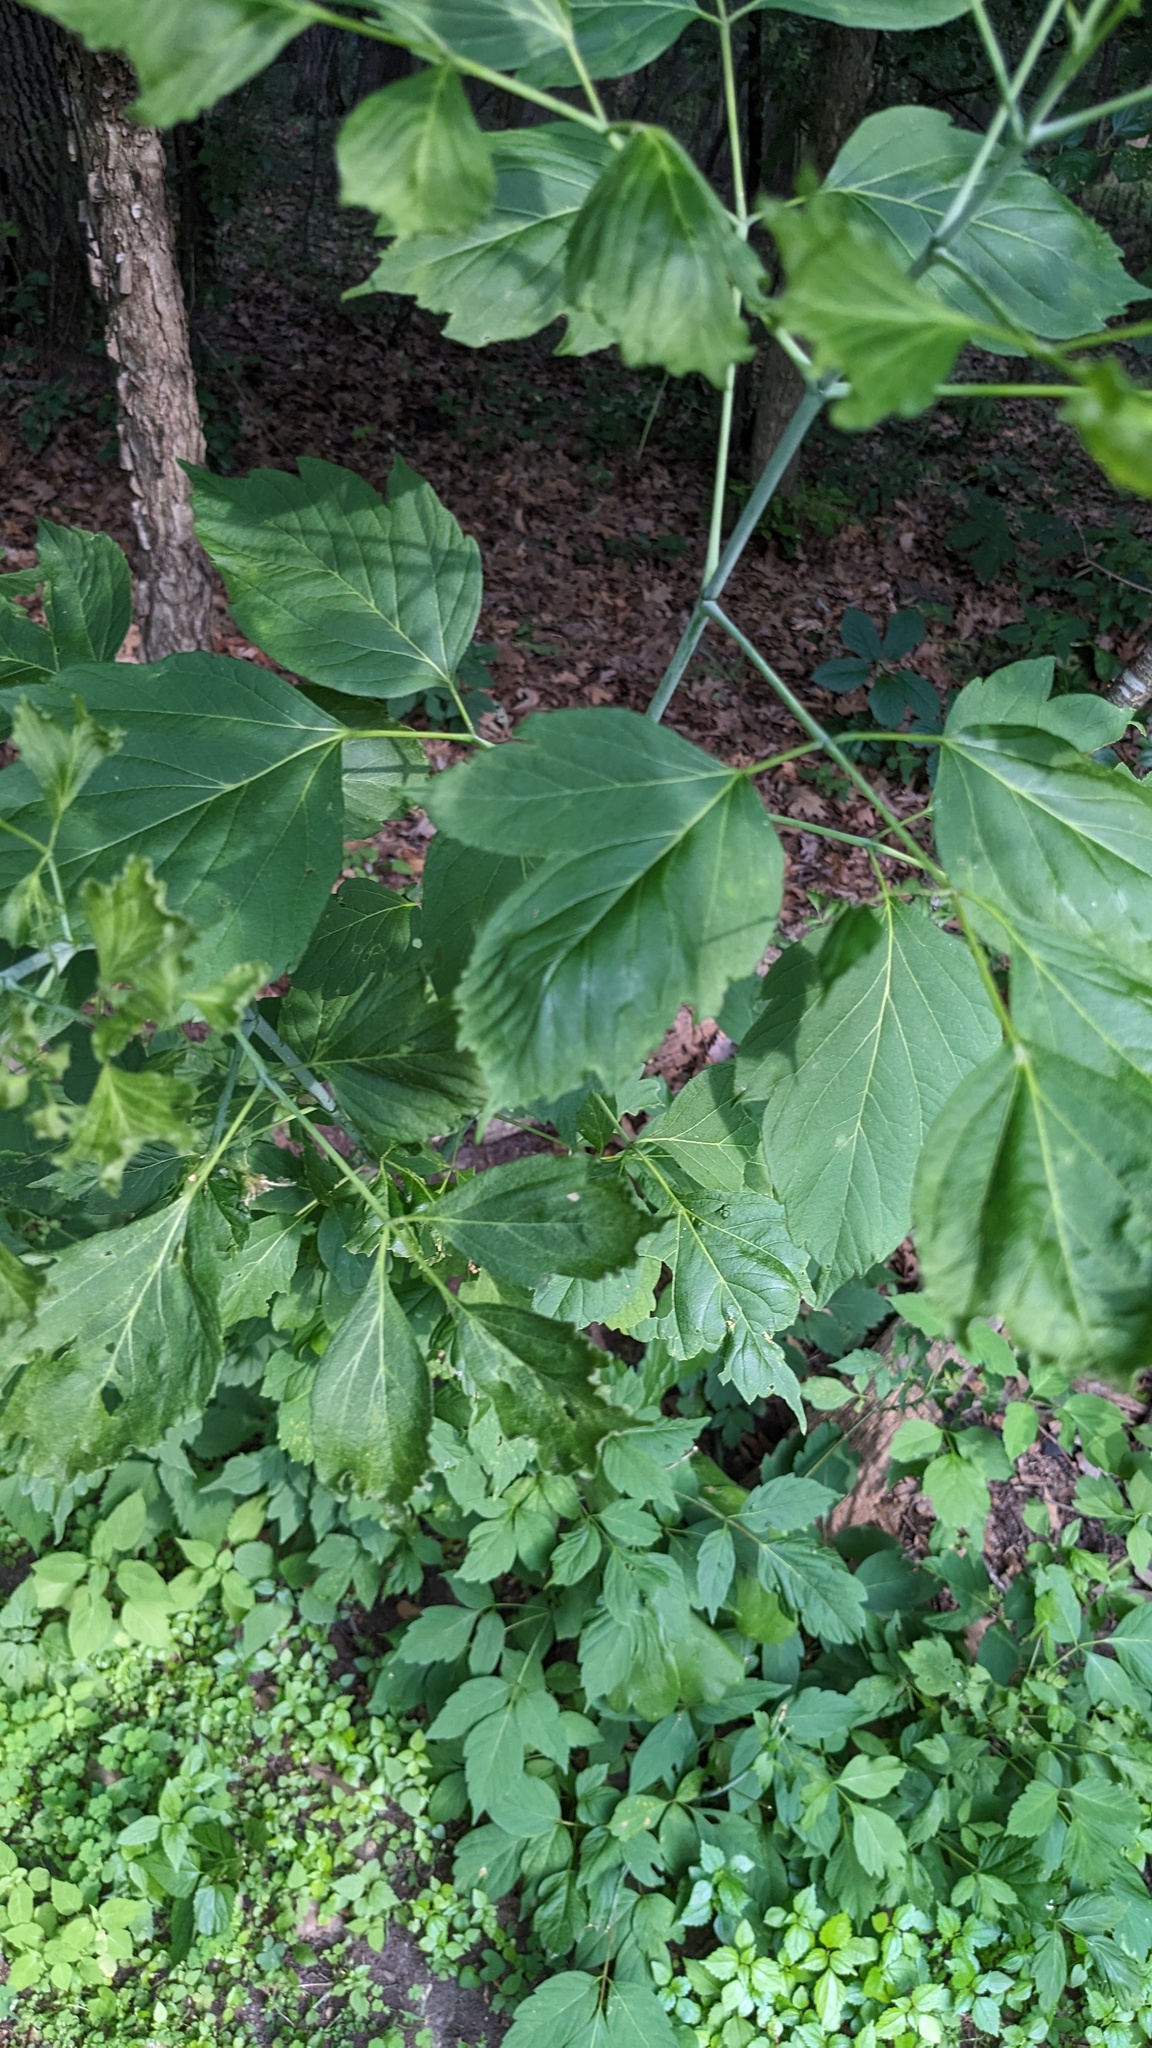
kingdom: Plantae
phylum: Tracheophyta
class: Magnoliopsida
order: Sapindales
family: Sapindaceae
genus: Acer
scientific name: Acer negundo
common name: Ashleaf maple
